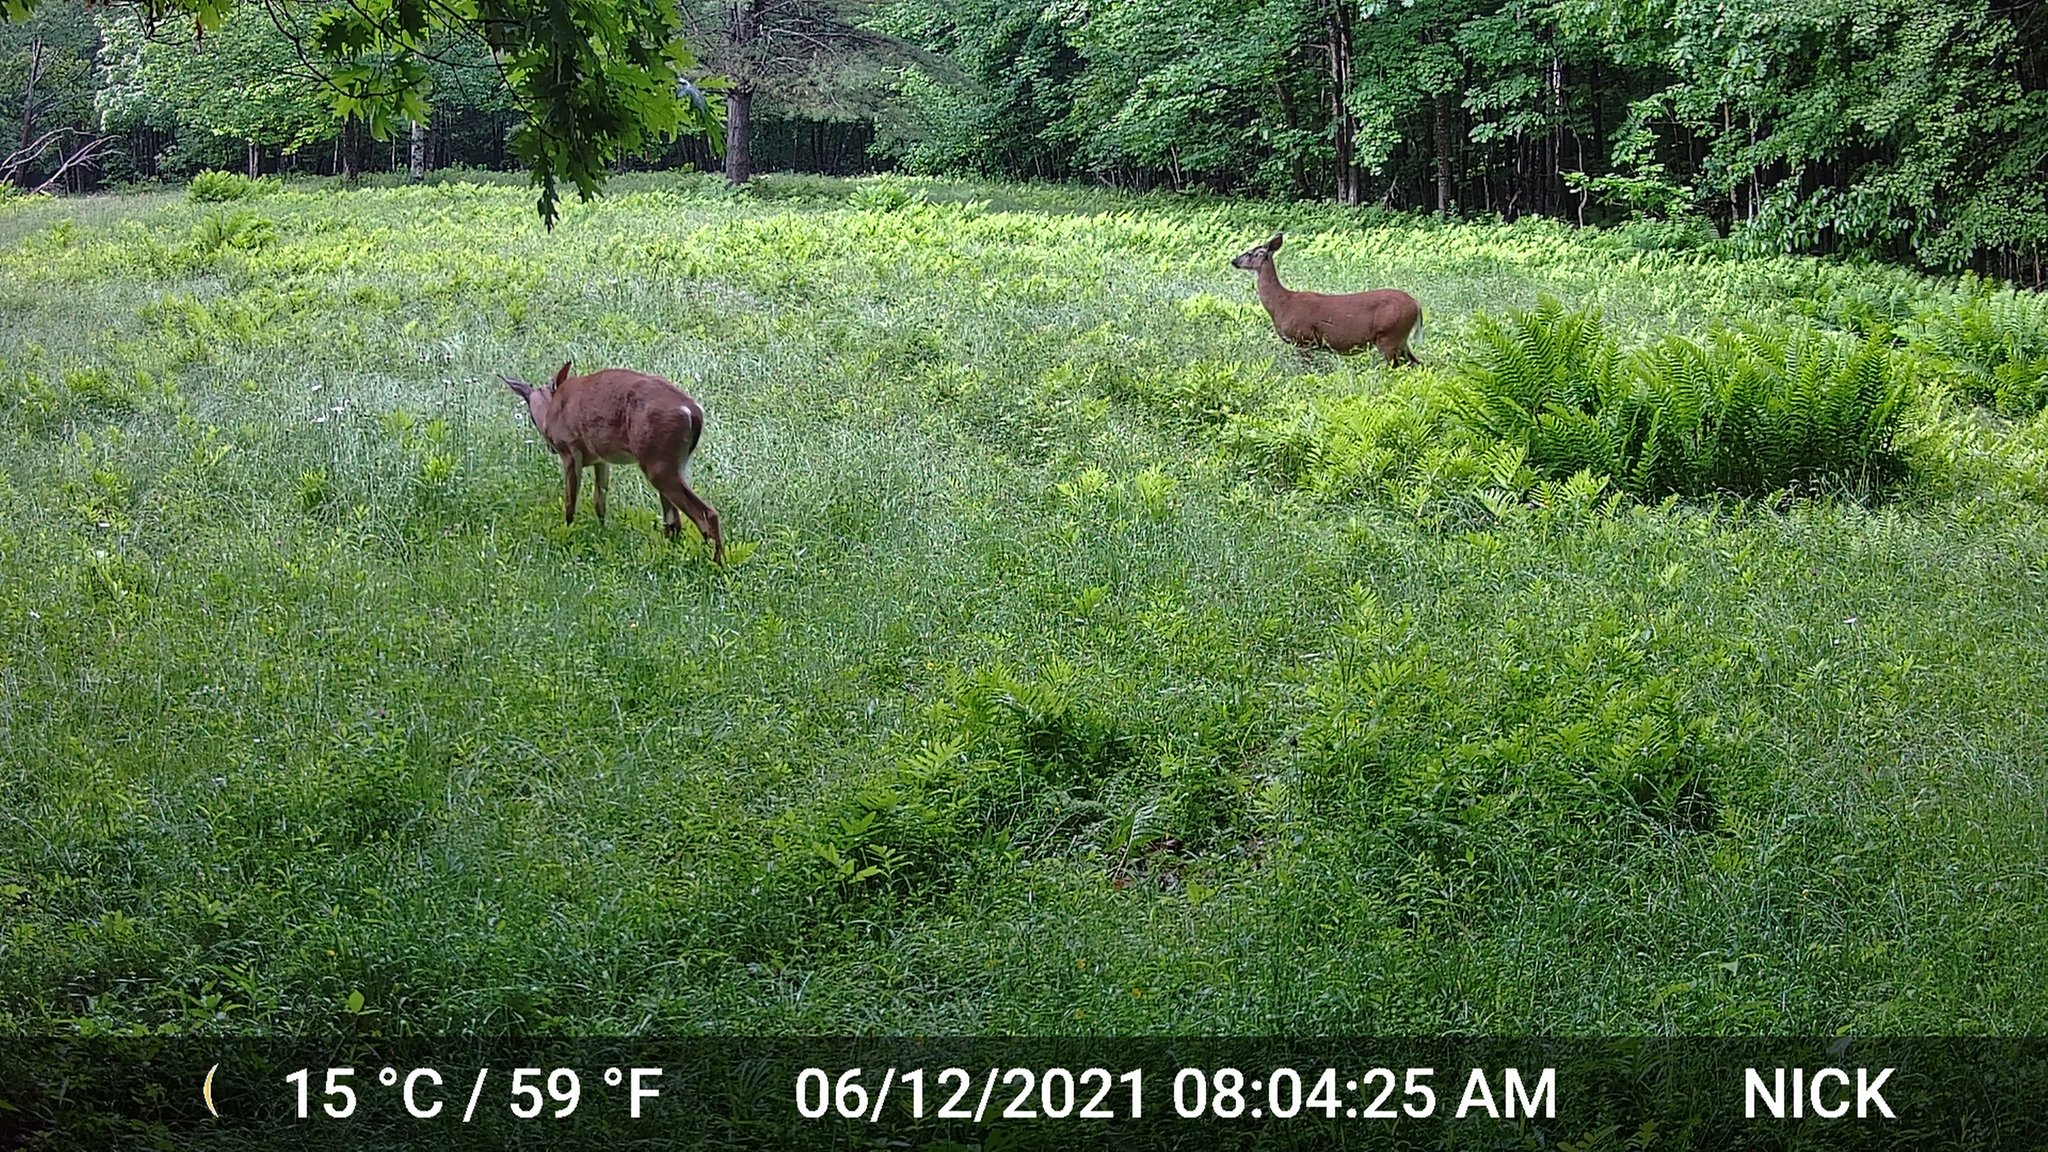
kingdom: Animalia
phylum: Chordata
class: Mammalia
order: Artiodactyla
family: Cervidae
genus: Odocoileus
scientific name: Odocoileus virginianus
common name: White-tailed deer
